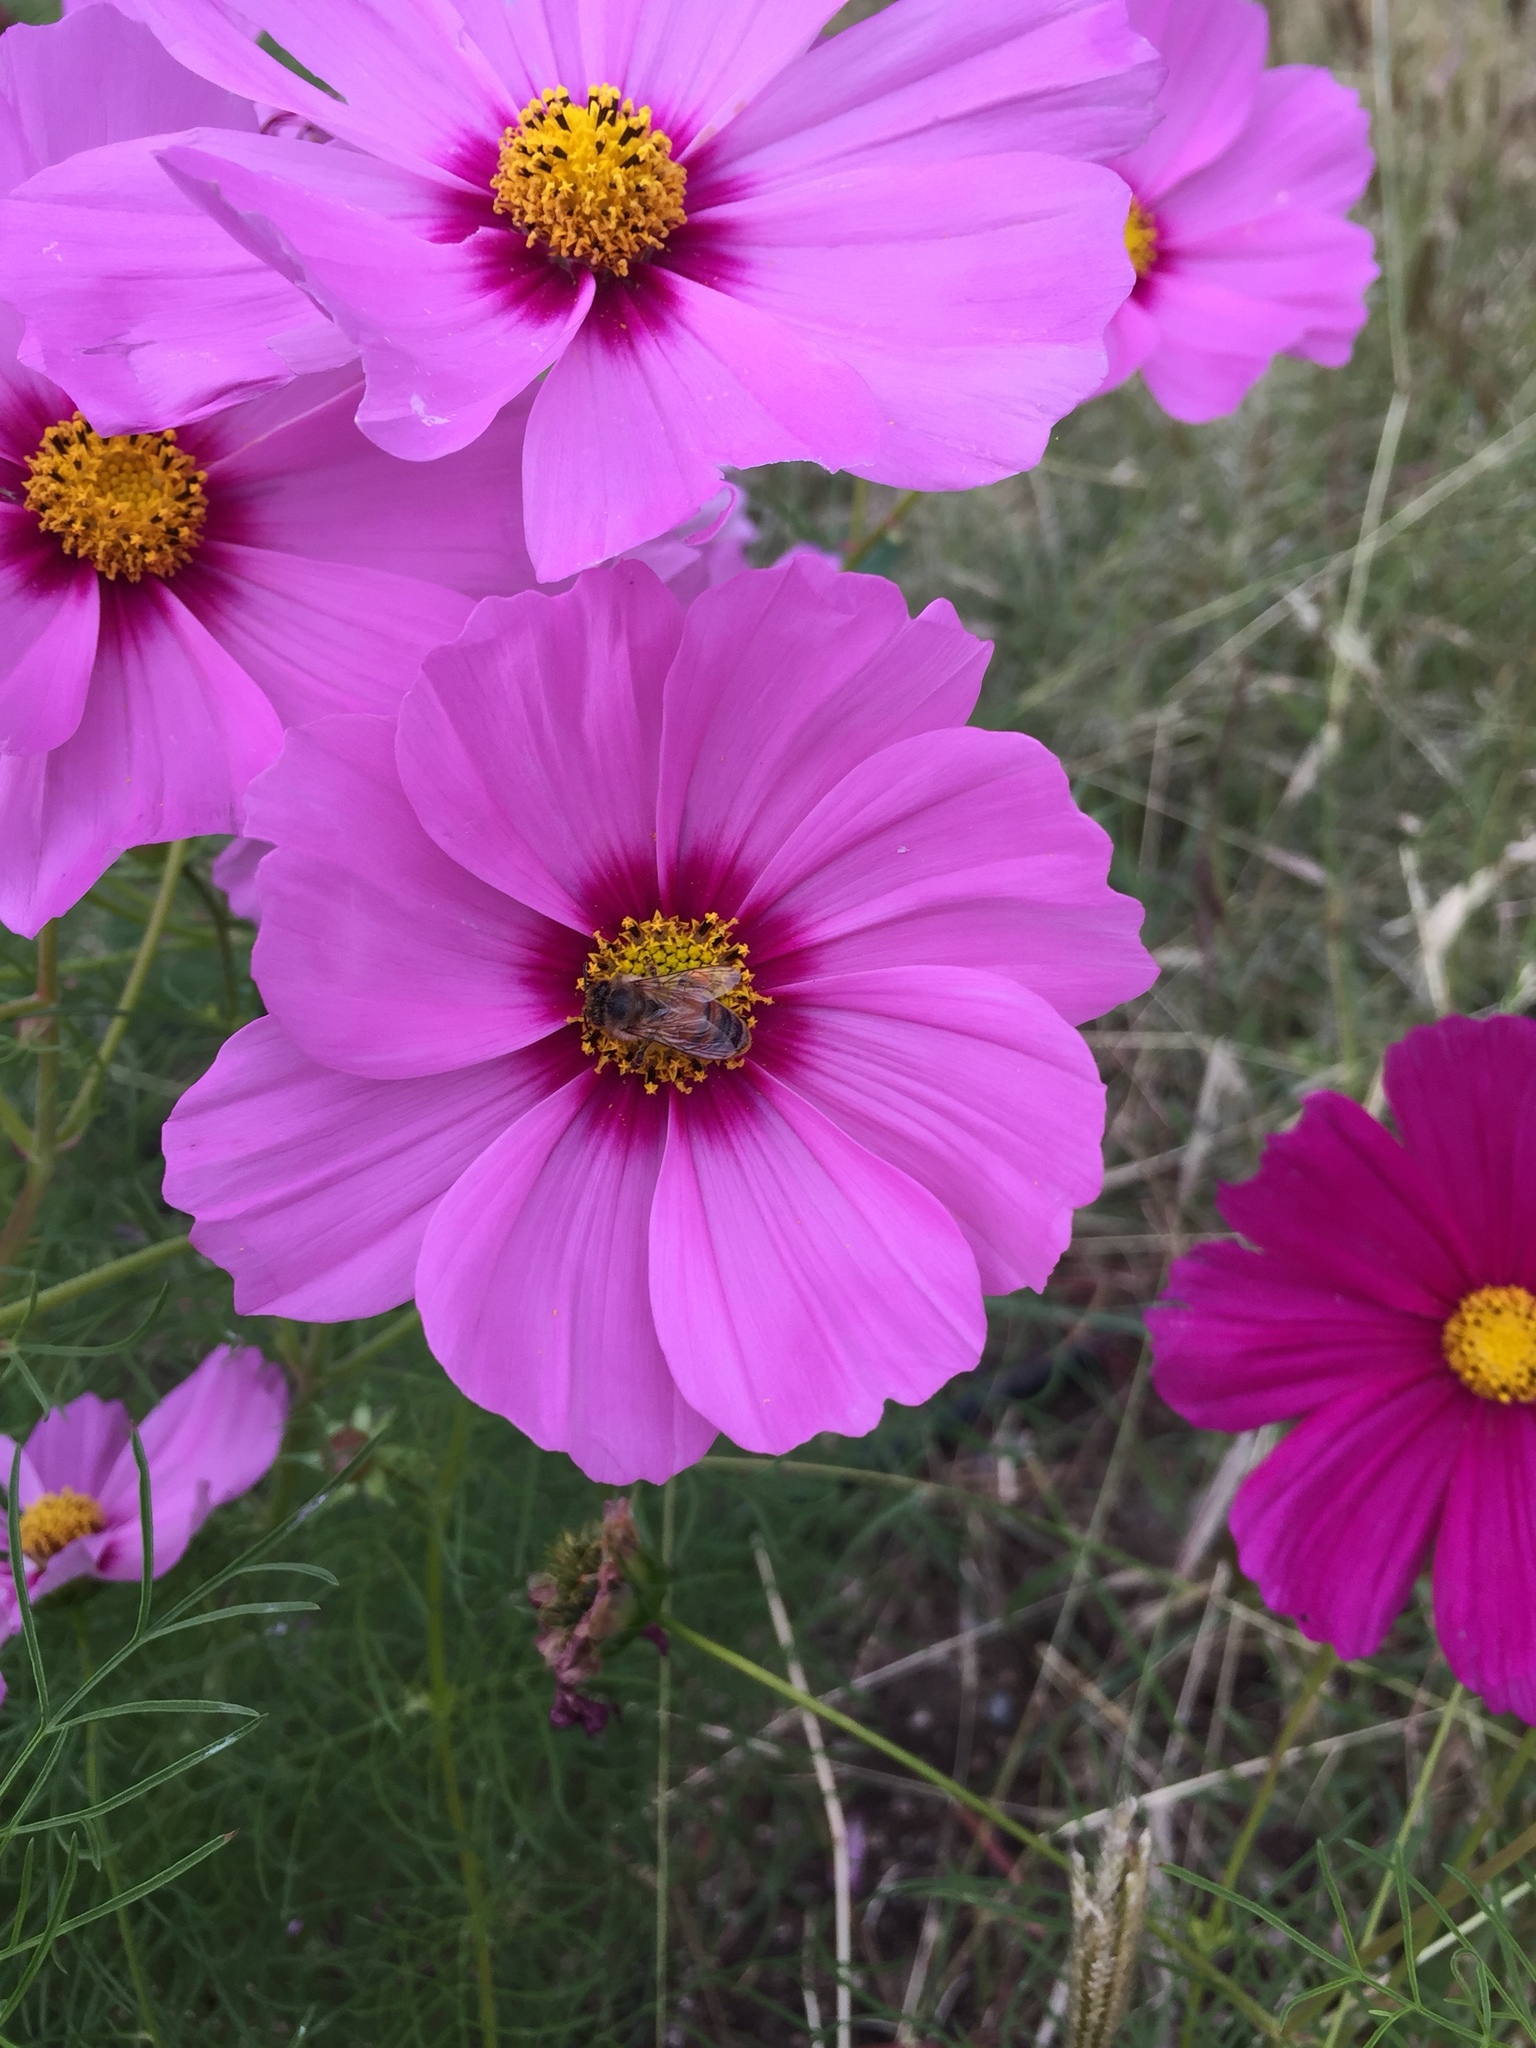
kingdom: Animalia
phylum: Arthropoda
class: Insecta
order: Hymenoptera
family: Apidae
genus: Apis
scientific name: Apis mellifera
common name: Honey bee
